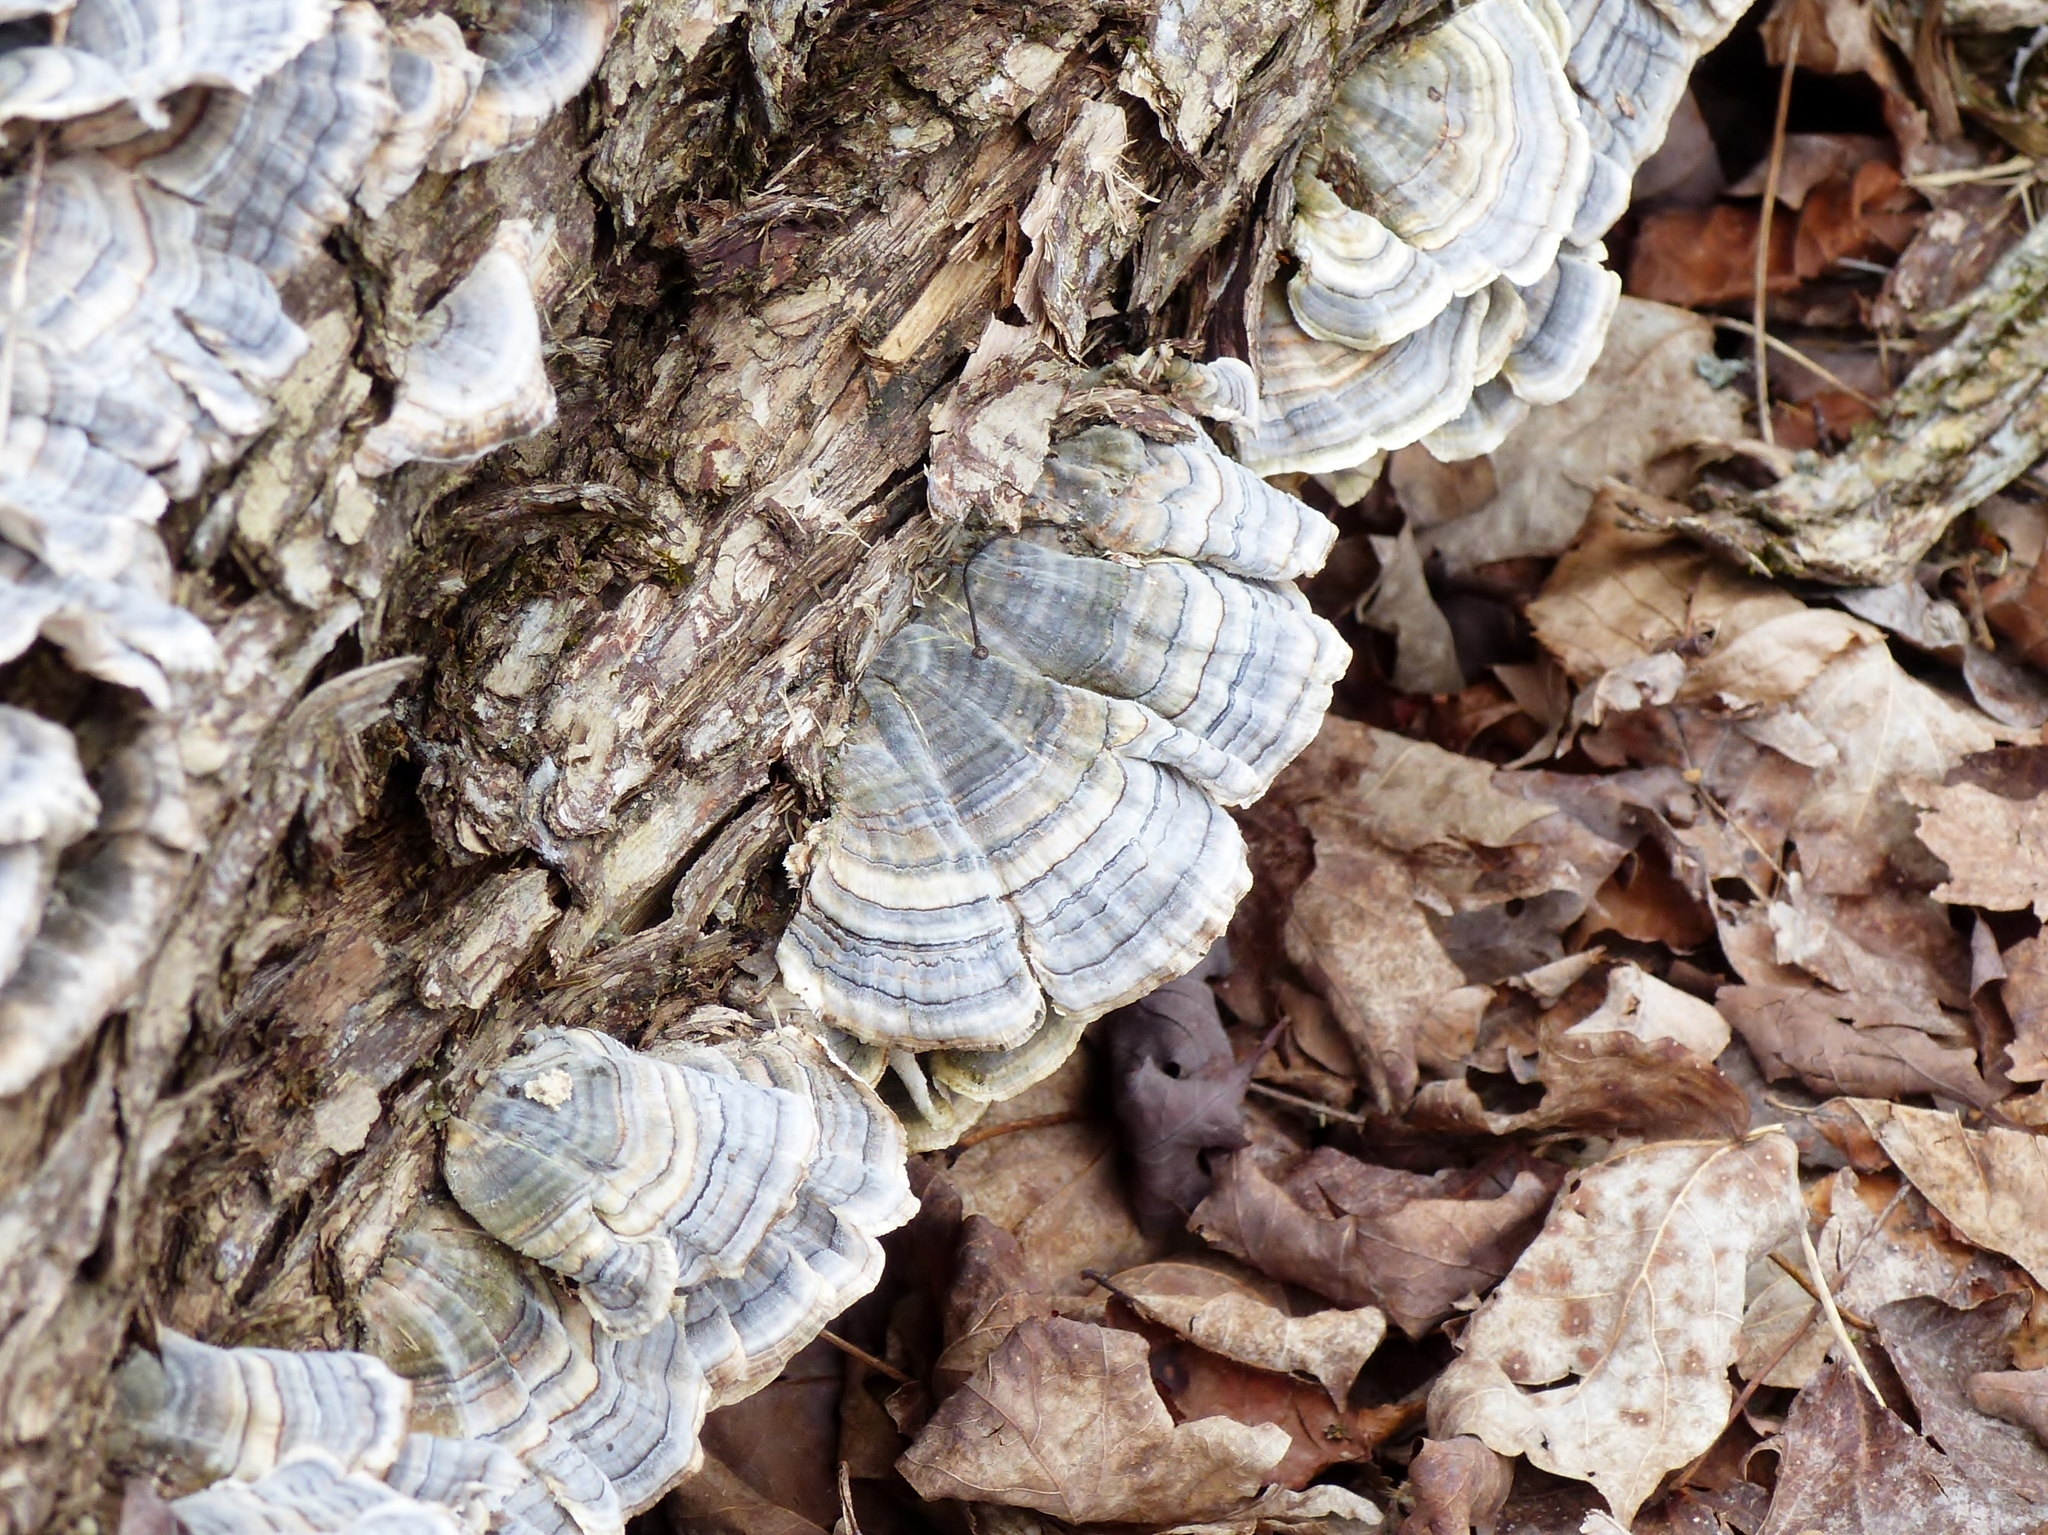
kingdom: Fungi
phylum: Basidiomycota
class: Agaricomycetes
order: Polyporales
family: Polyporaceae
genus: Trametes
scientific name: Trametes versicolor
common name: Turkeytail
